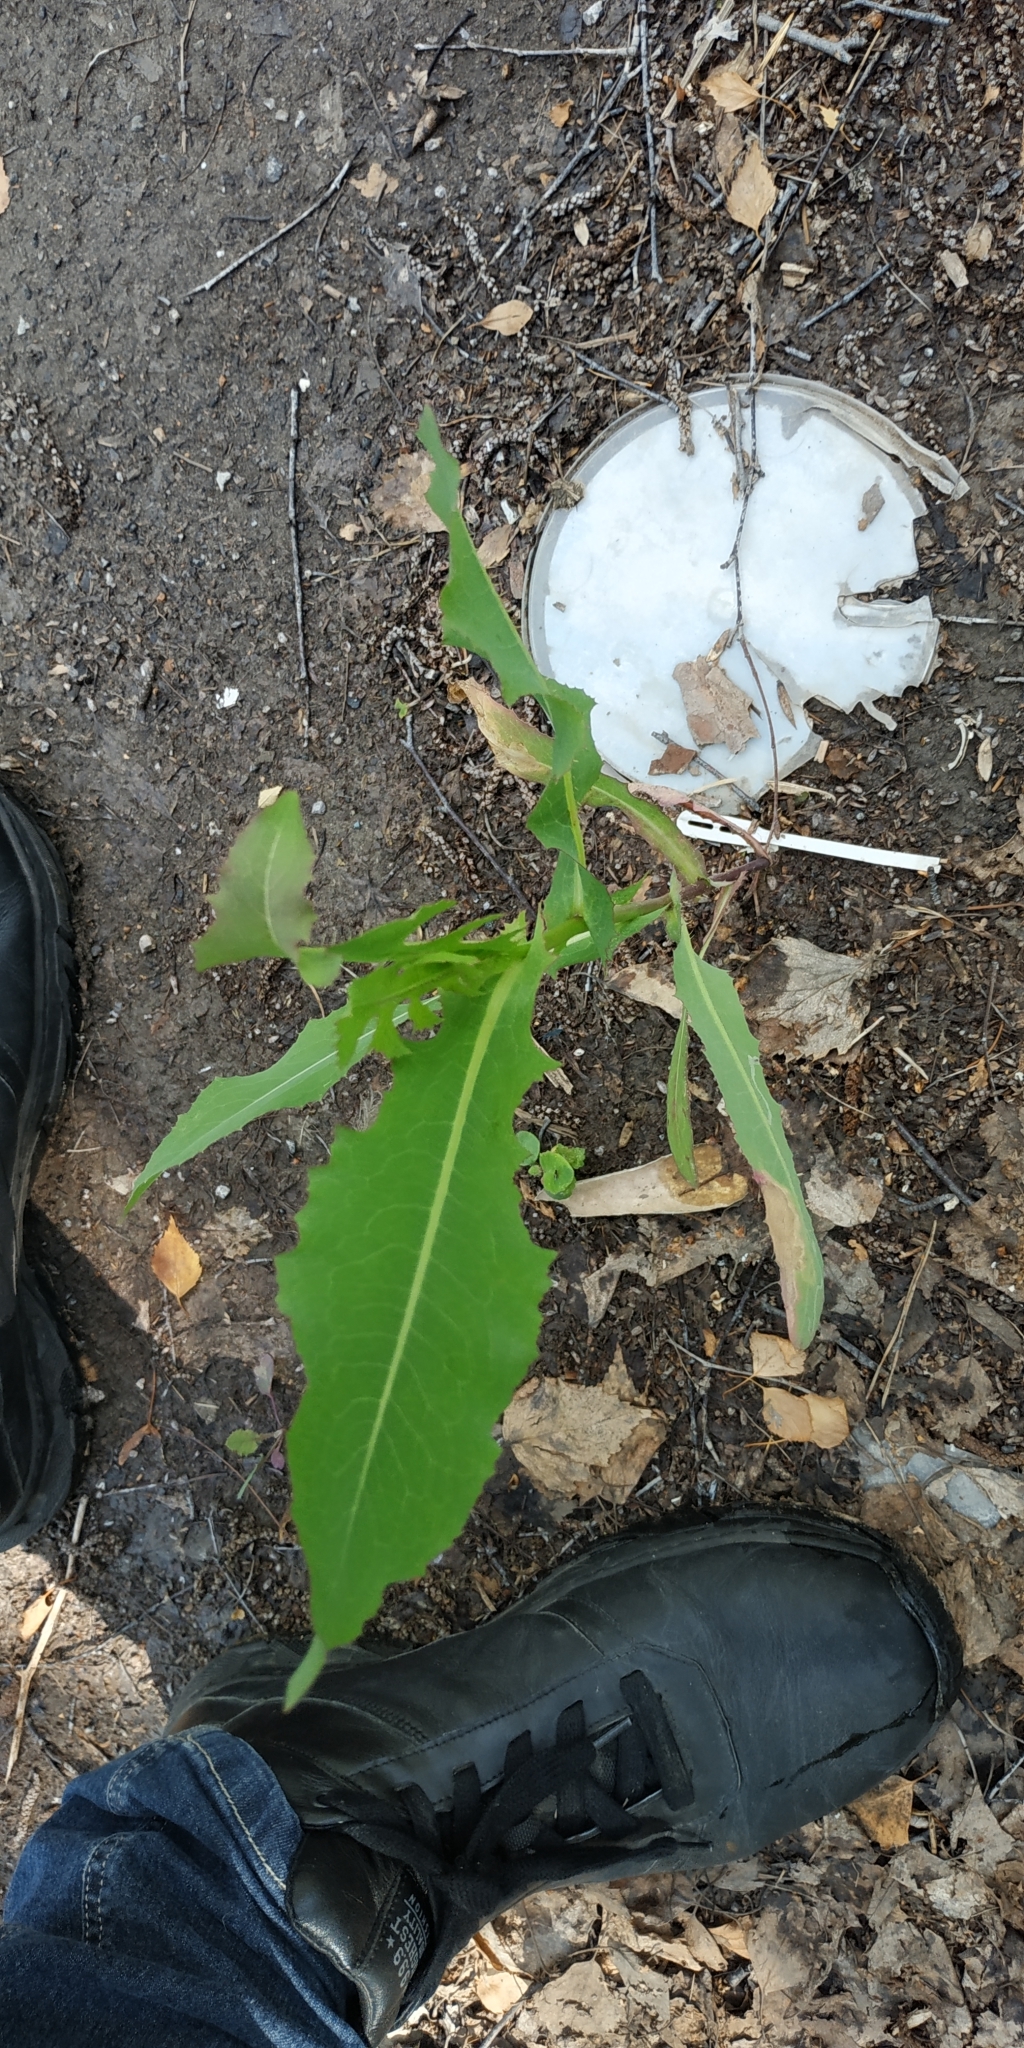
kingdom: Plantae
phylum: Tracheophyta
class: Magnoliopsida
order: Asterales
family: Asteraceae
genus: Lactuca
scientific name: Lactuca serriola
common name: Prickly lettuce
